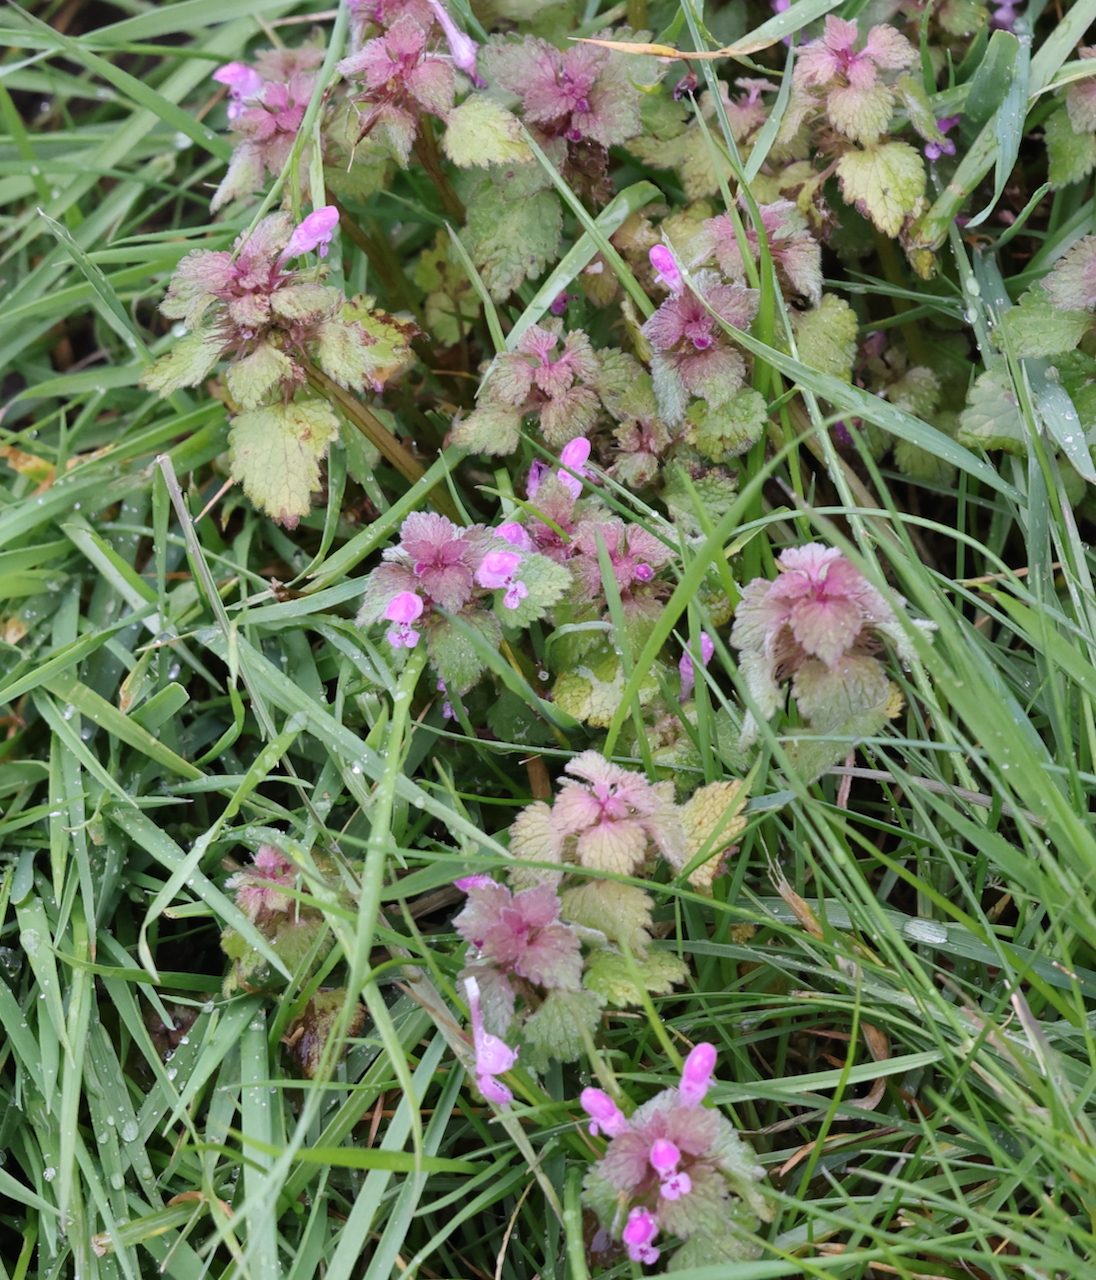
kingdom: Plantae
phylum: Tracheophyta
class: Magnoliopsida
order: Lamiales
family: Lamiaceae
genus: Lamium
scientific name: Lamium purpureum
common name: Red dead-nettle
